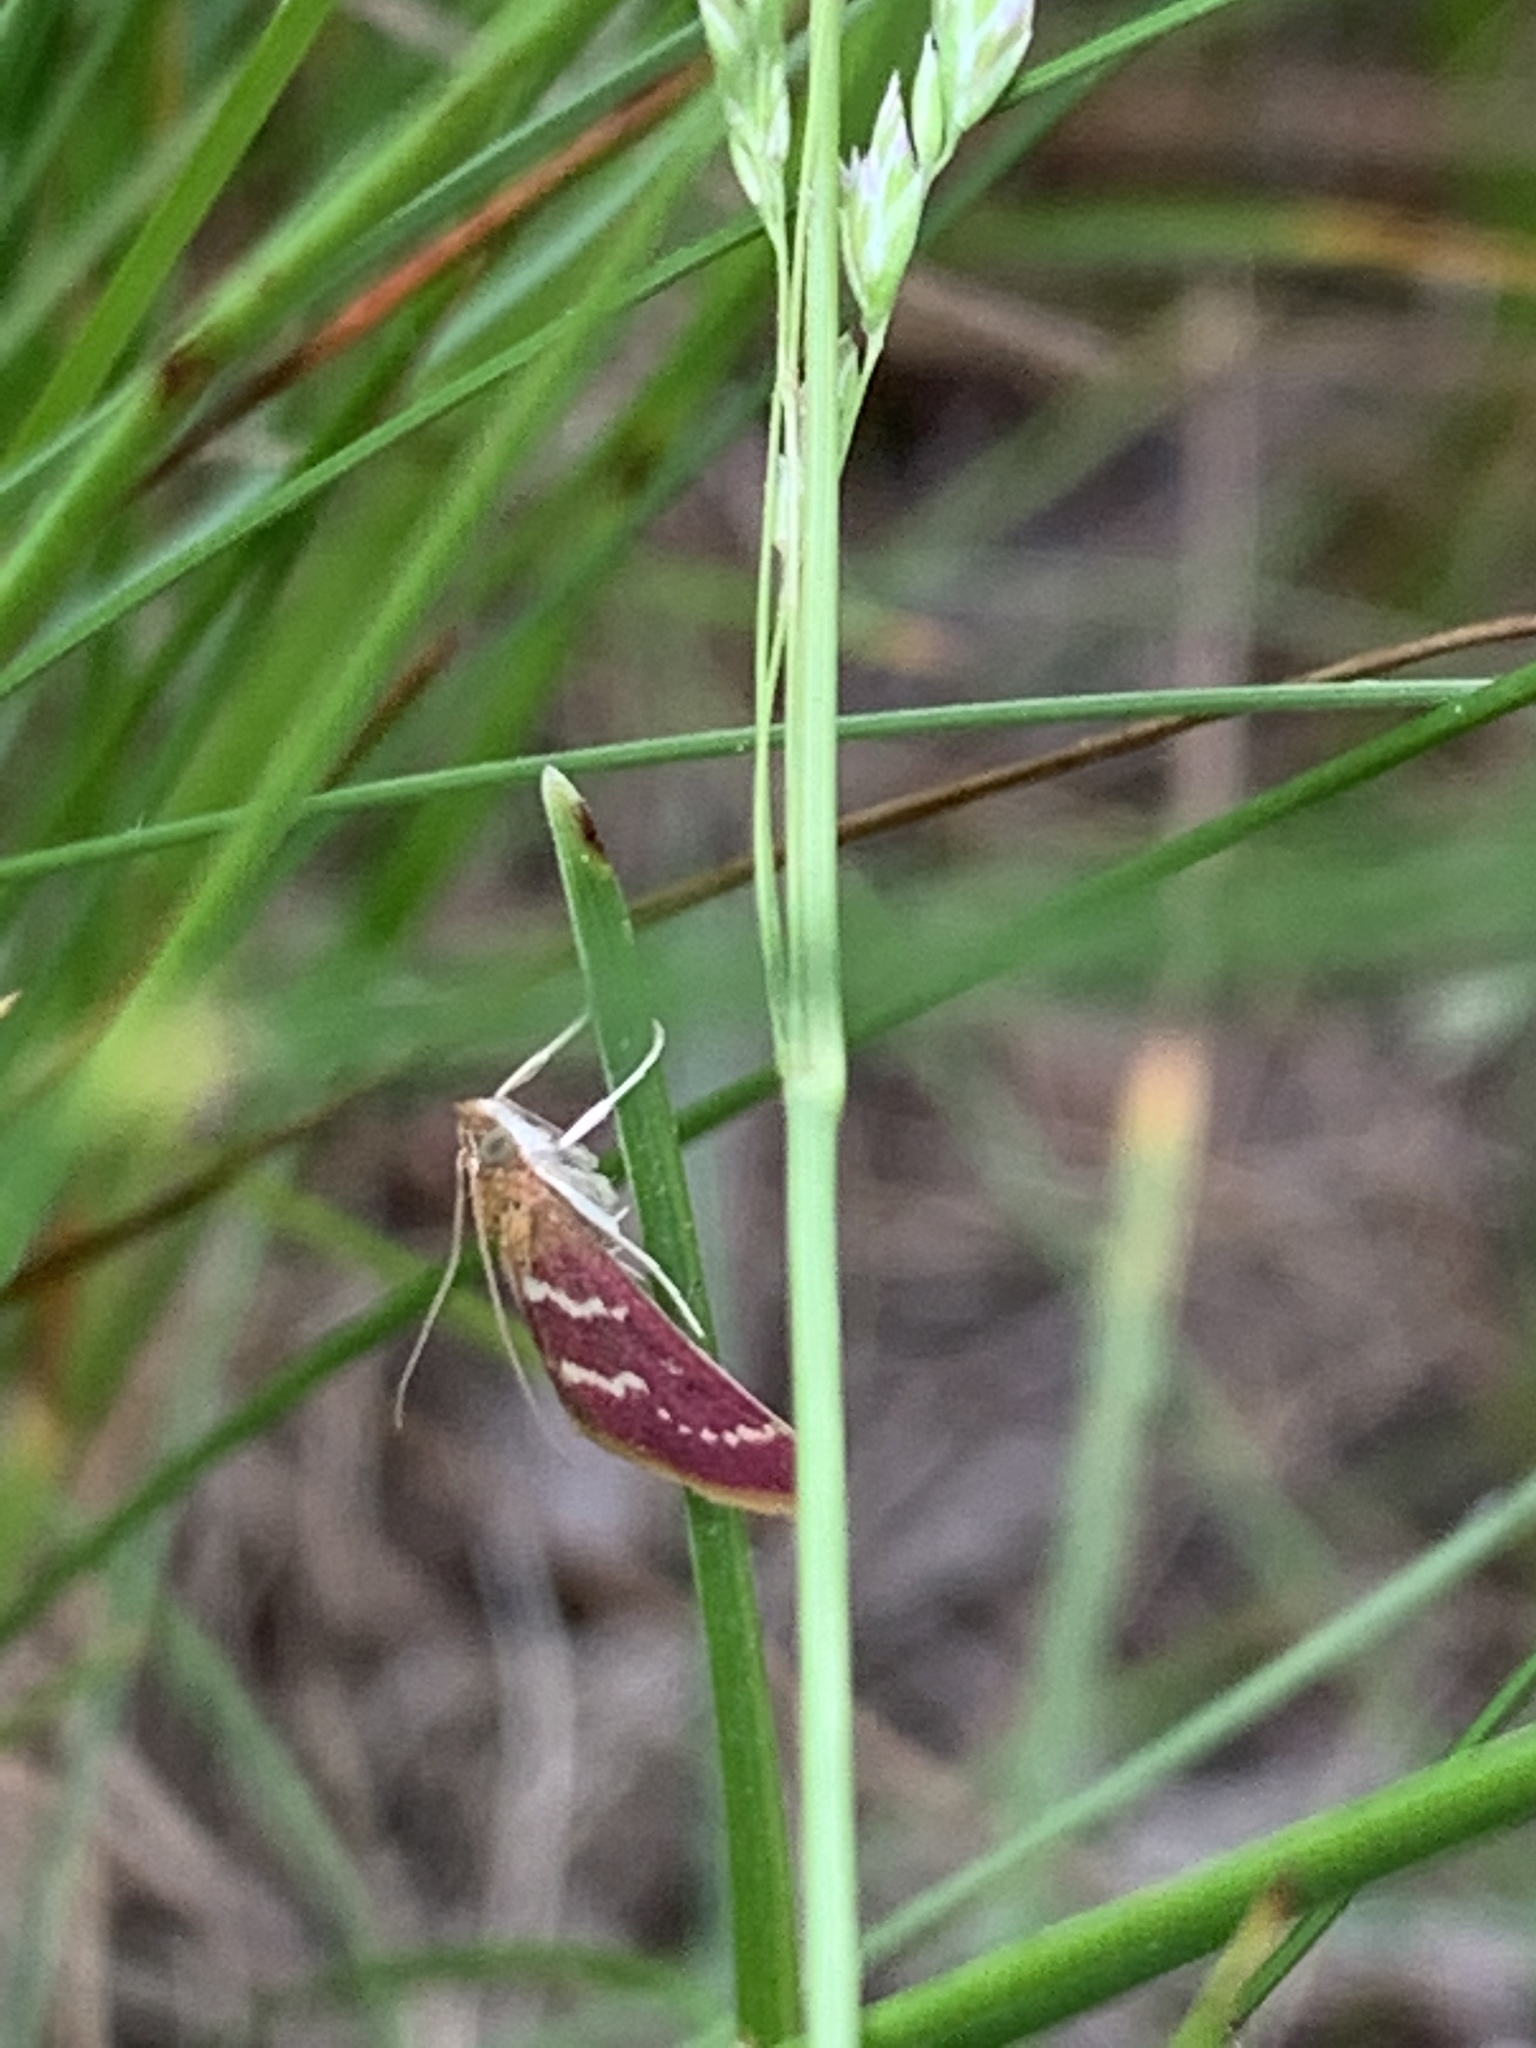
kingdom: Animalia
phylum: Arthropoda
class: Insecta
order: Lepidoptera
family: Crambidae
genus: Pyrausta
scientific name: Pyrausta signatalis
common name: Raspberry pyrausta moth
